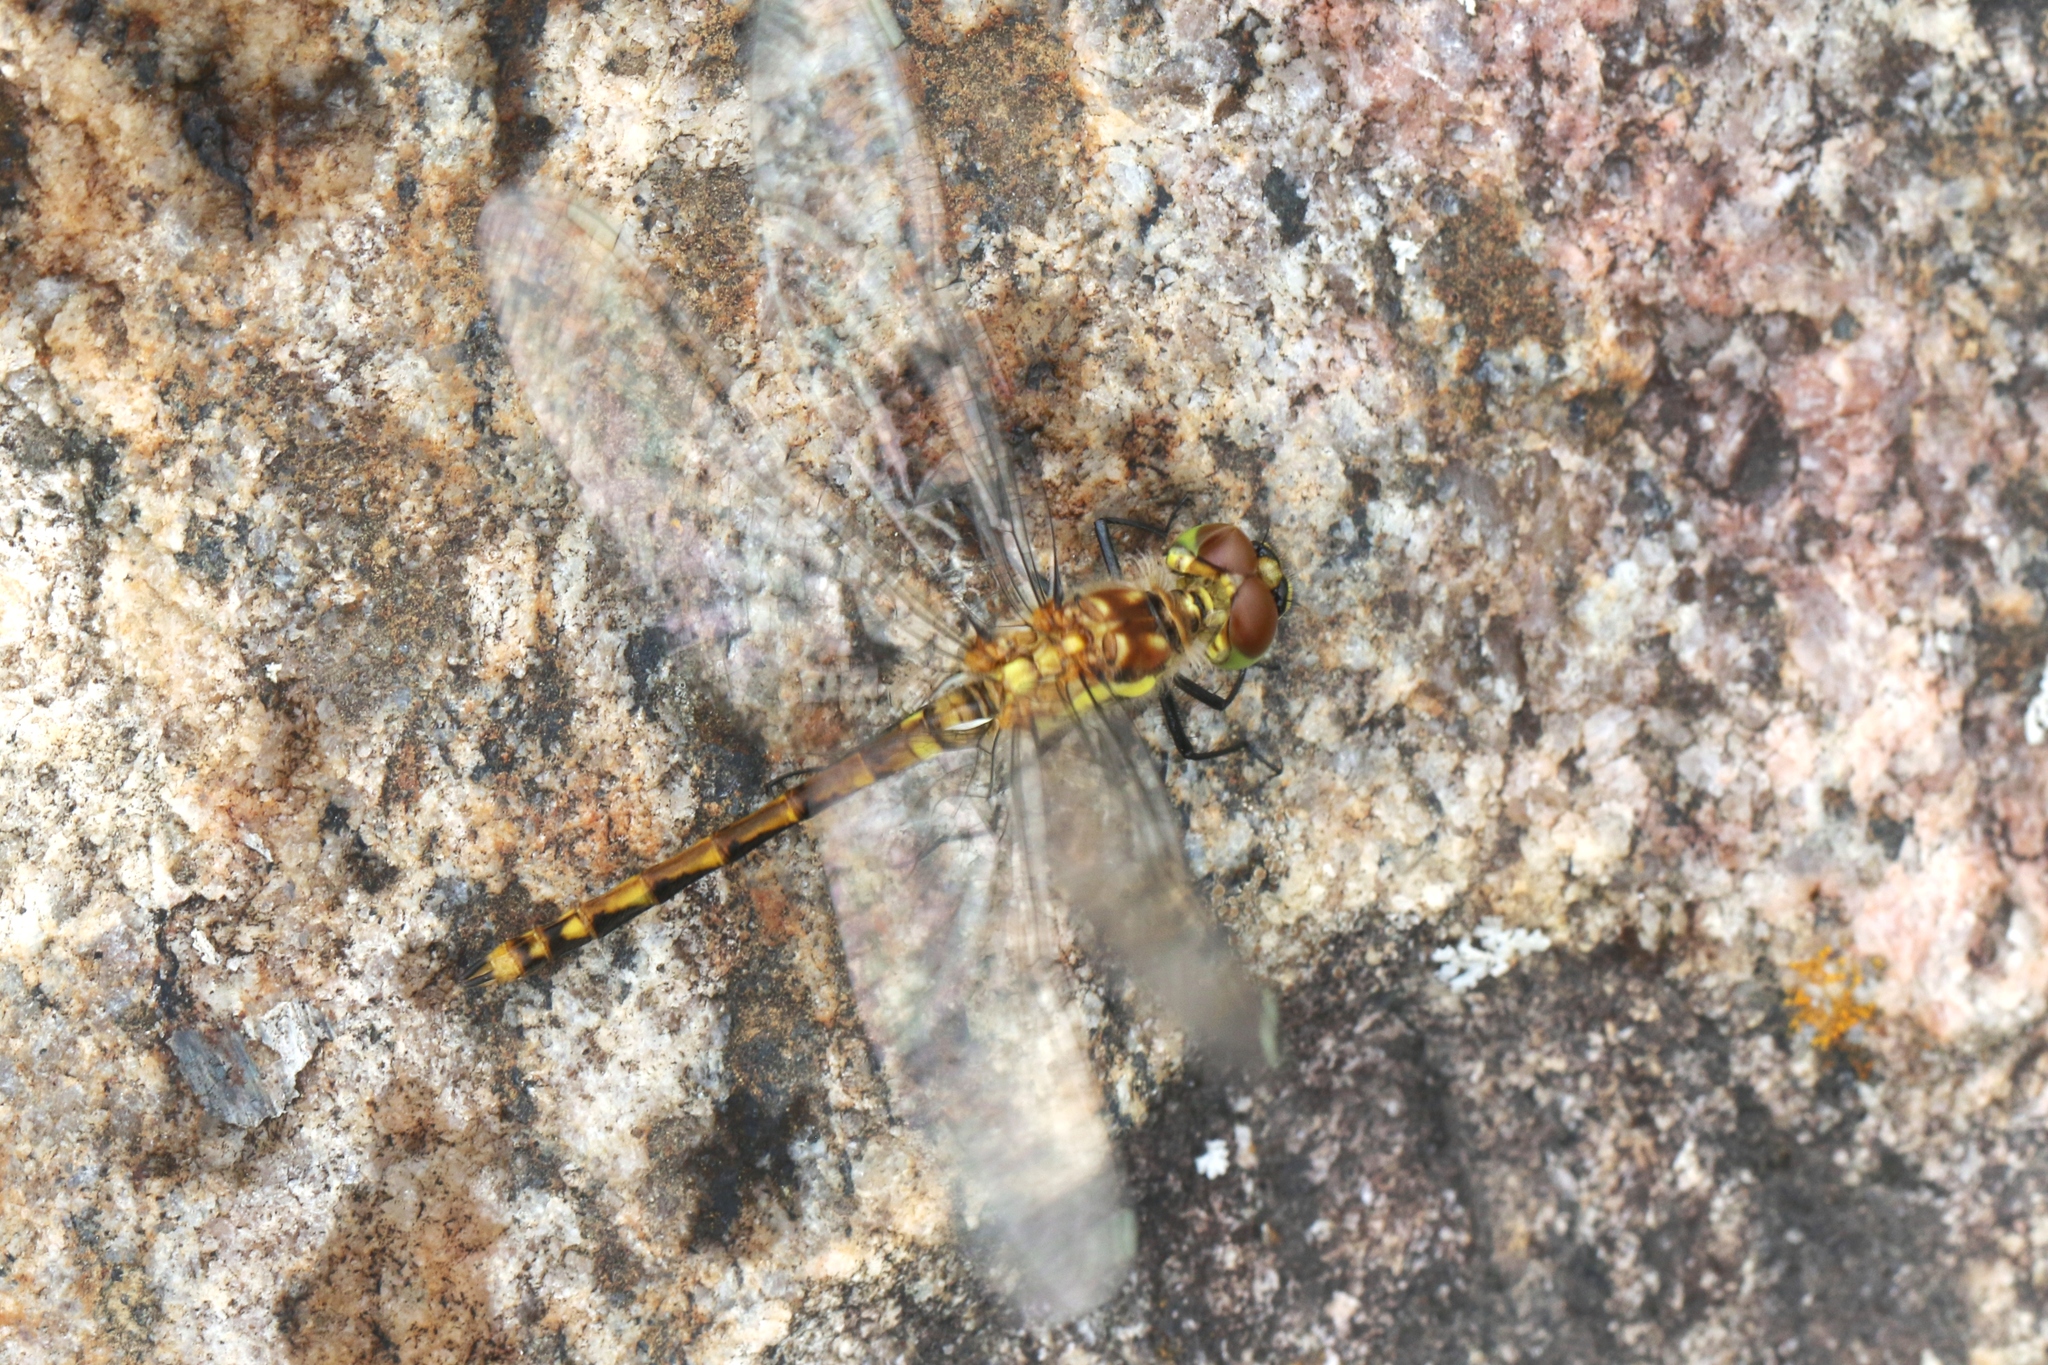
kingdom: Animalia
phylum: Arthropoda
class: Insecta
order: Odonata
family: Libellulidae
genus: Sympetrum
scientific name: Sympetrum danae
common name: Black darter
